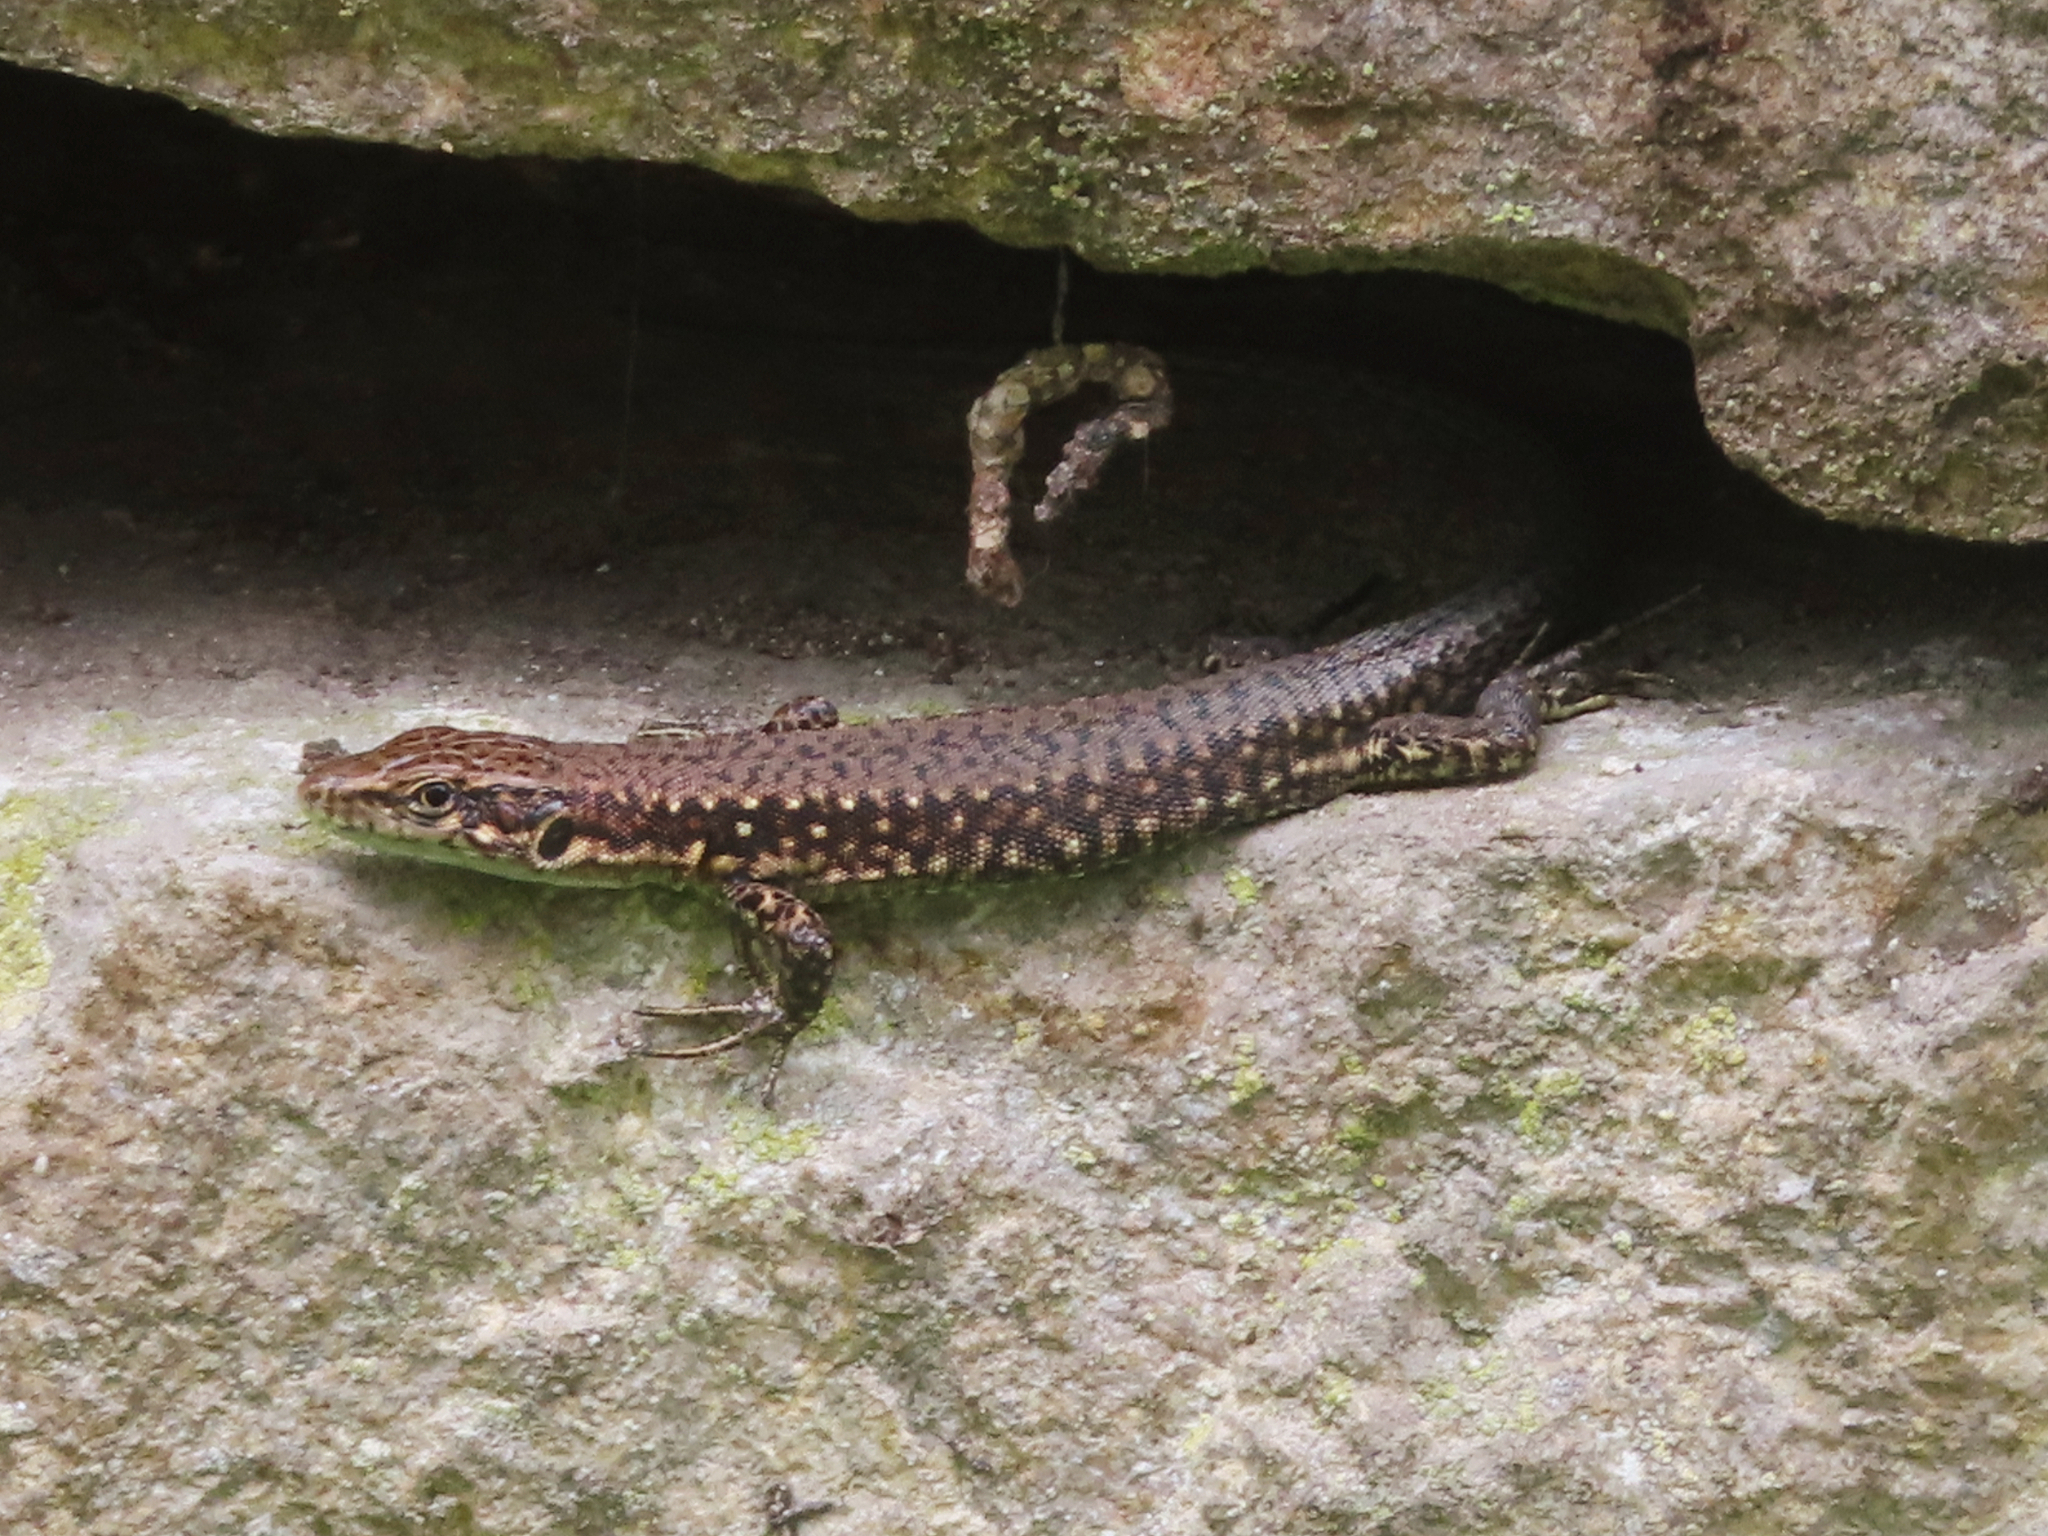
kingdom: Animalia
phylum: Chordata
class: Squamata
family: Lacertidae
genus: Darevskia
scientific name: Darevskia armeniaca
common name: Armenian lizard
